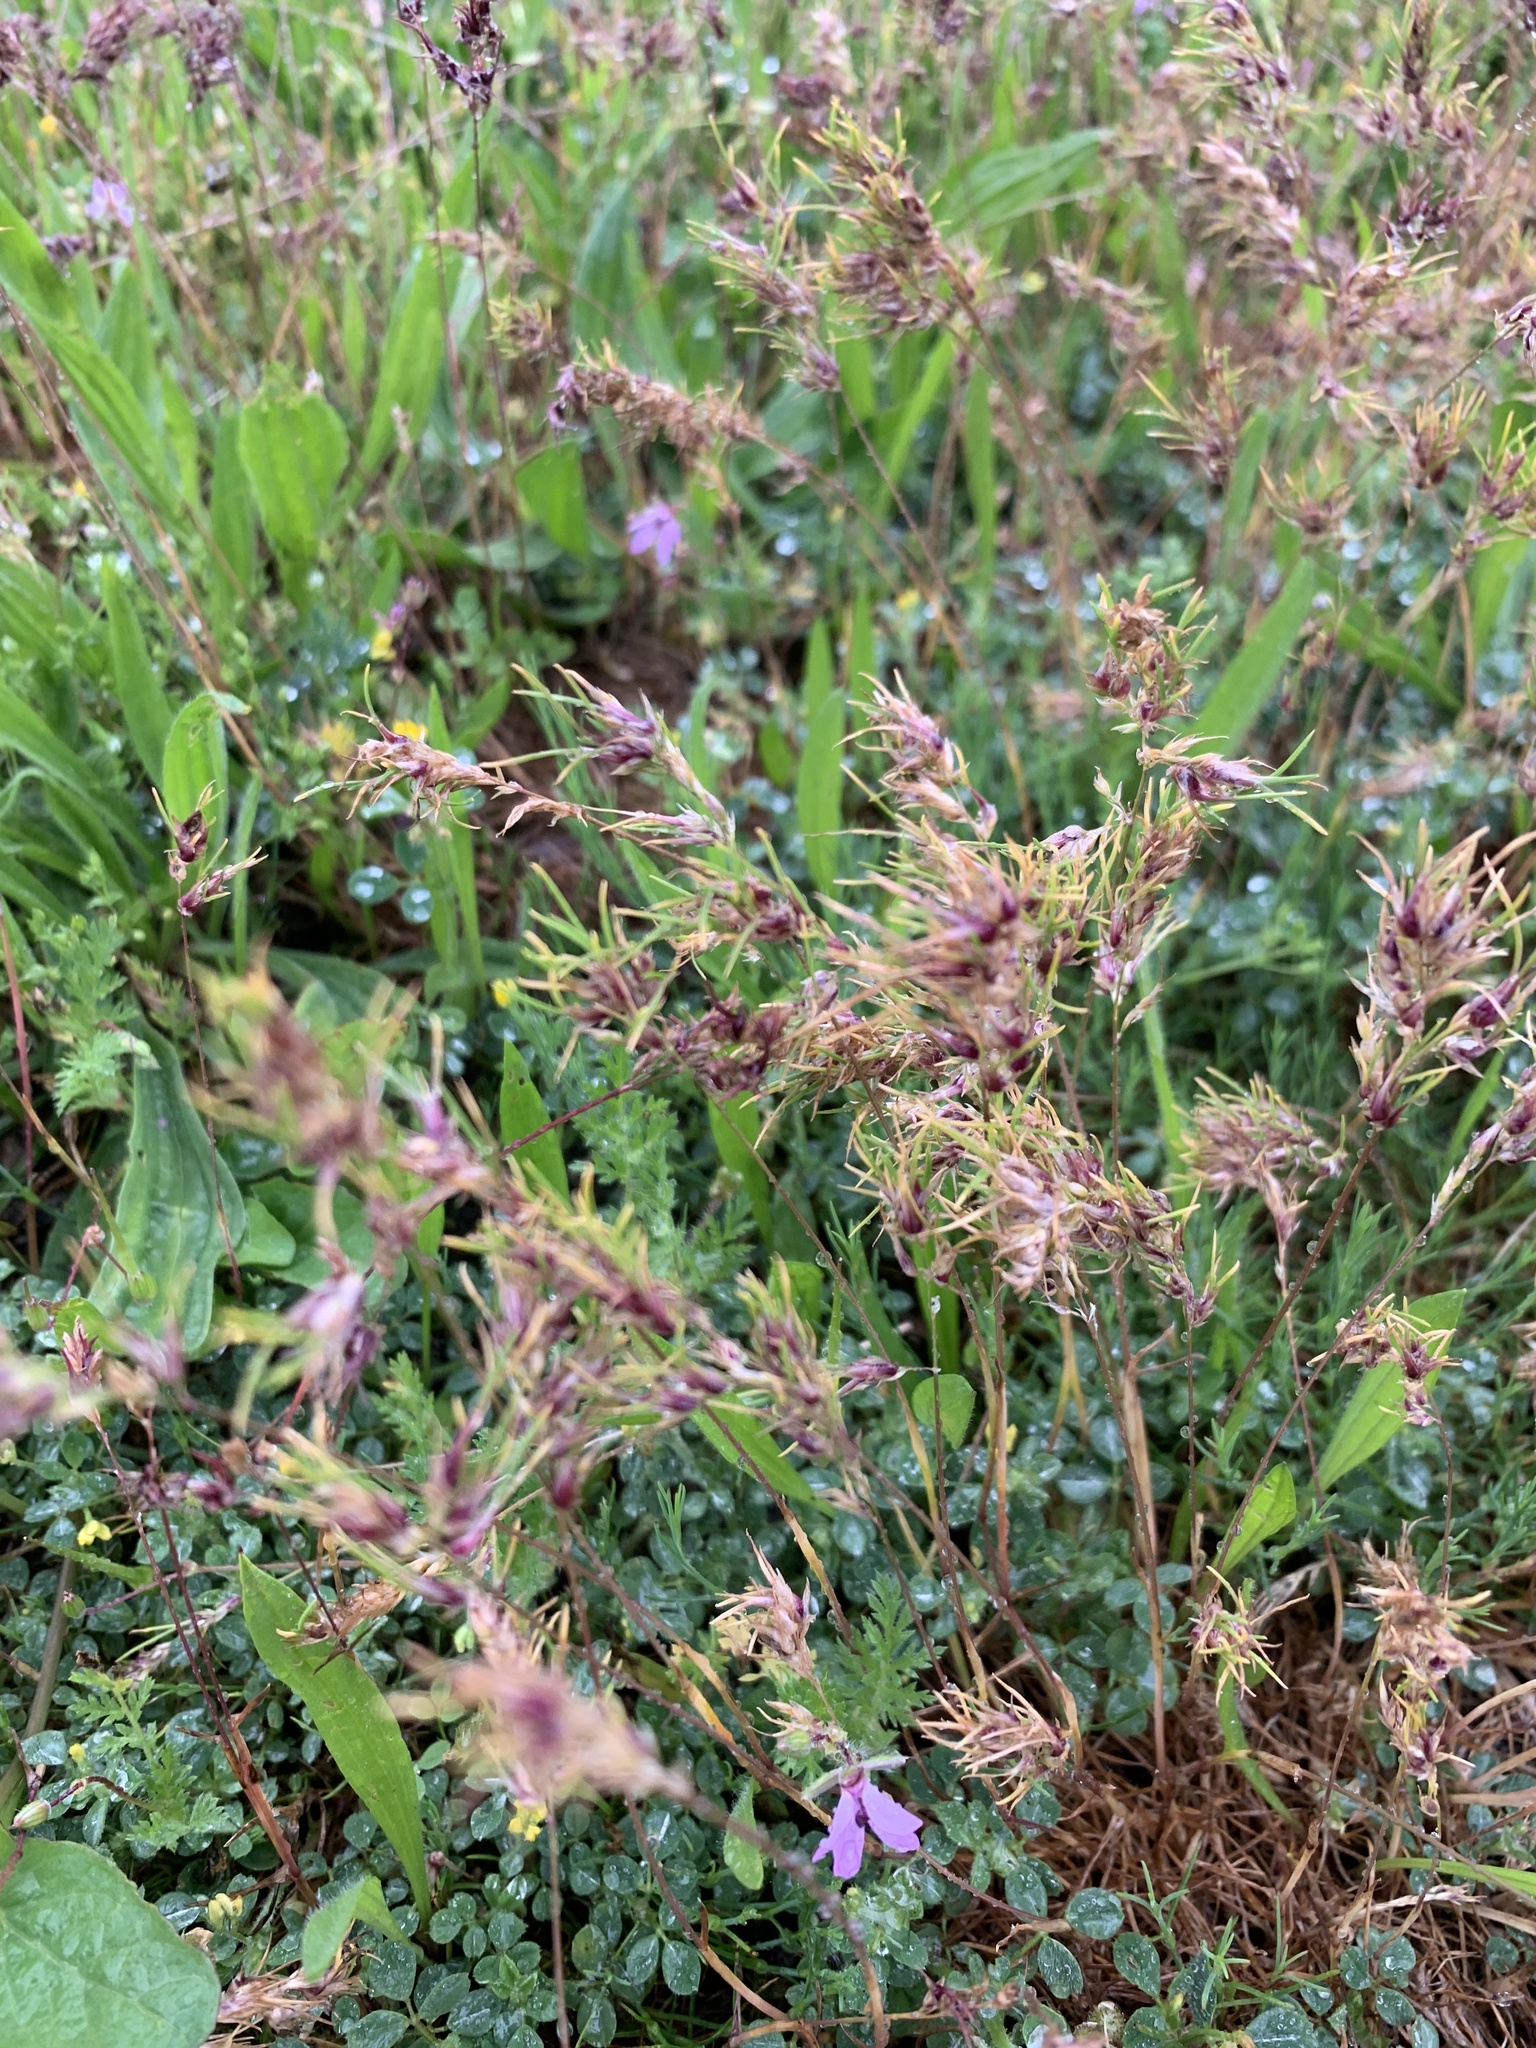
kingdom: Plantae
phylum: Tracheophyta
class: Liliopsida
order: Poales
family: Poaceae
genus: Poa
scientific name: Poa bulbosa
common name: Bulbous bluegrass
